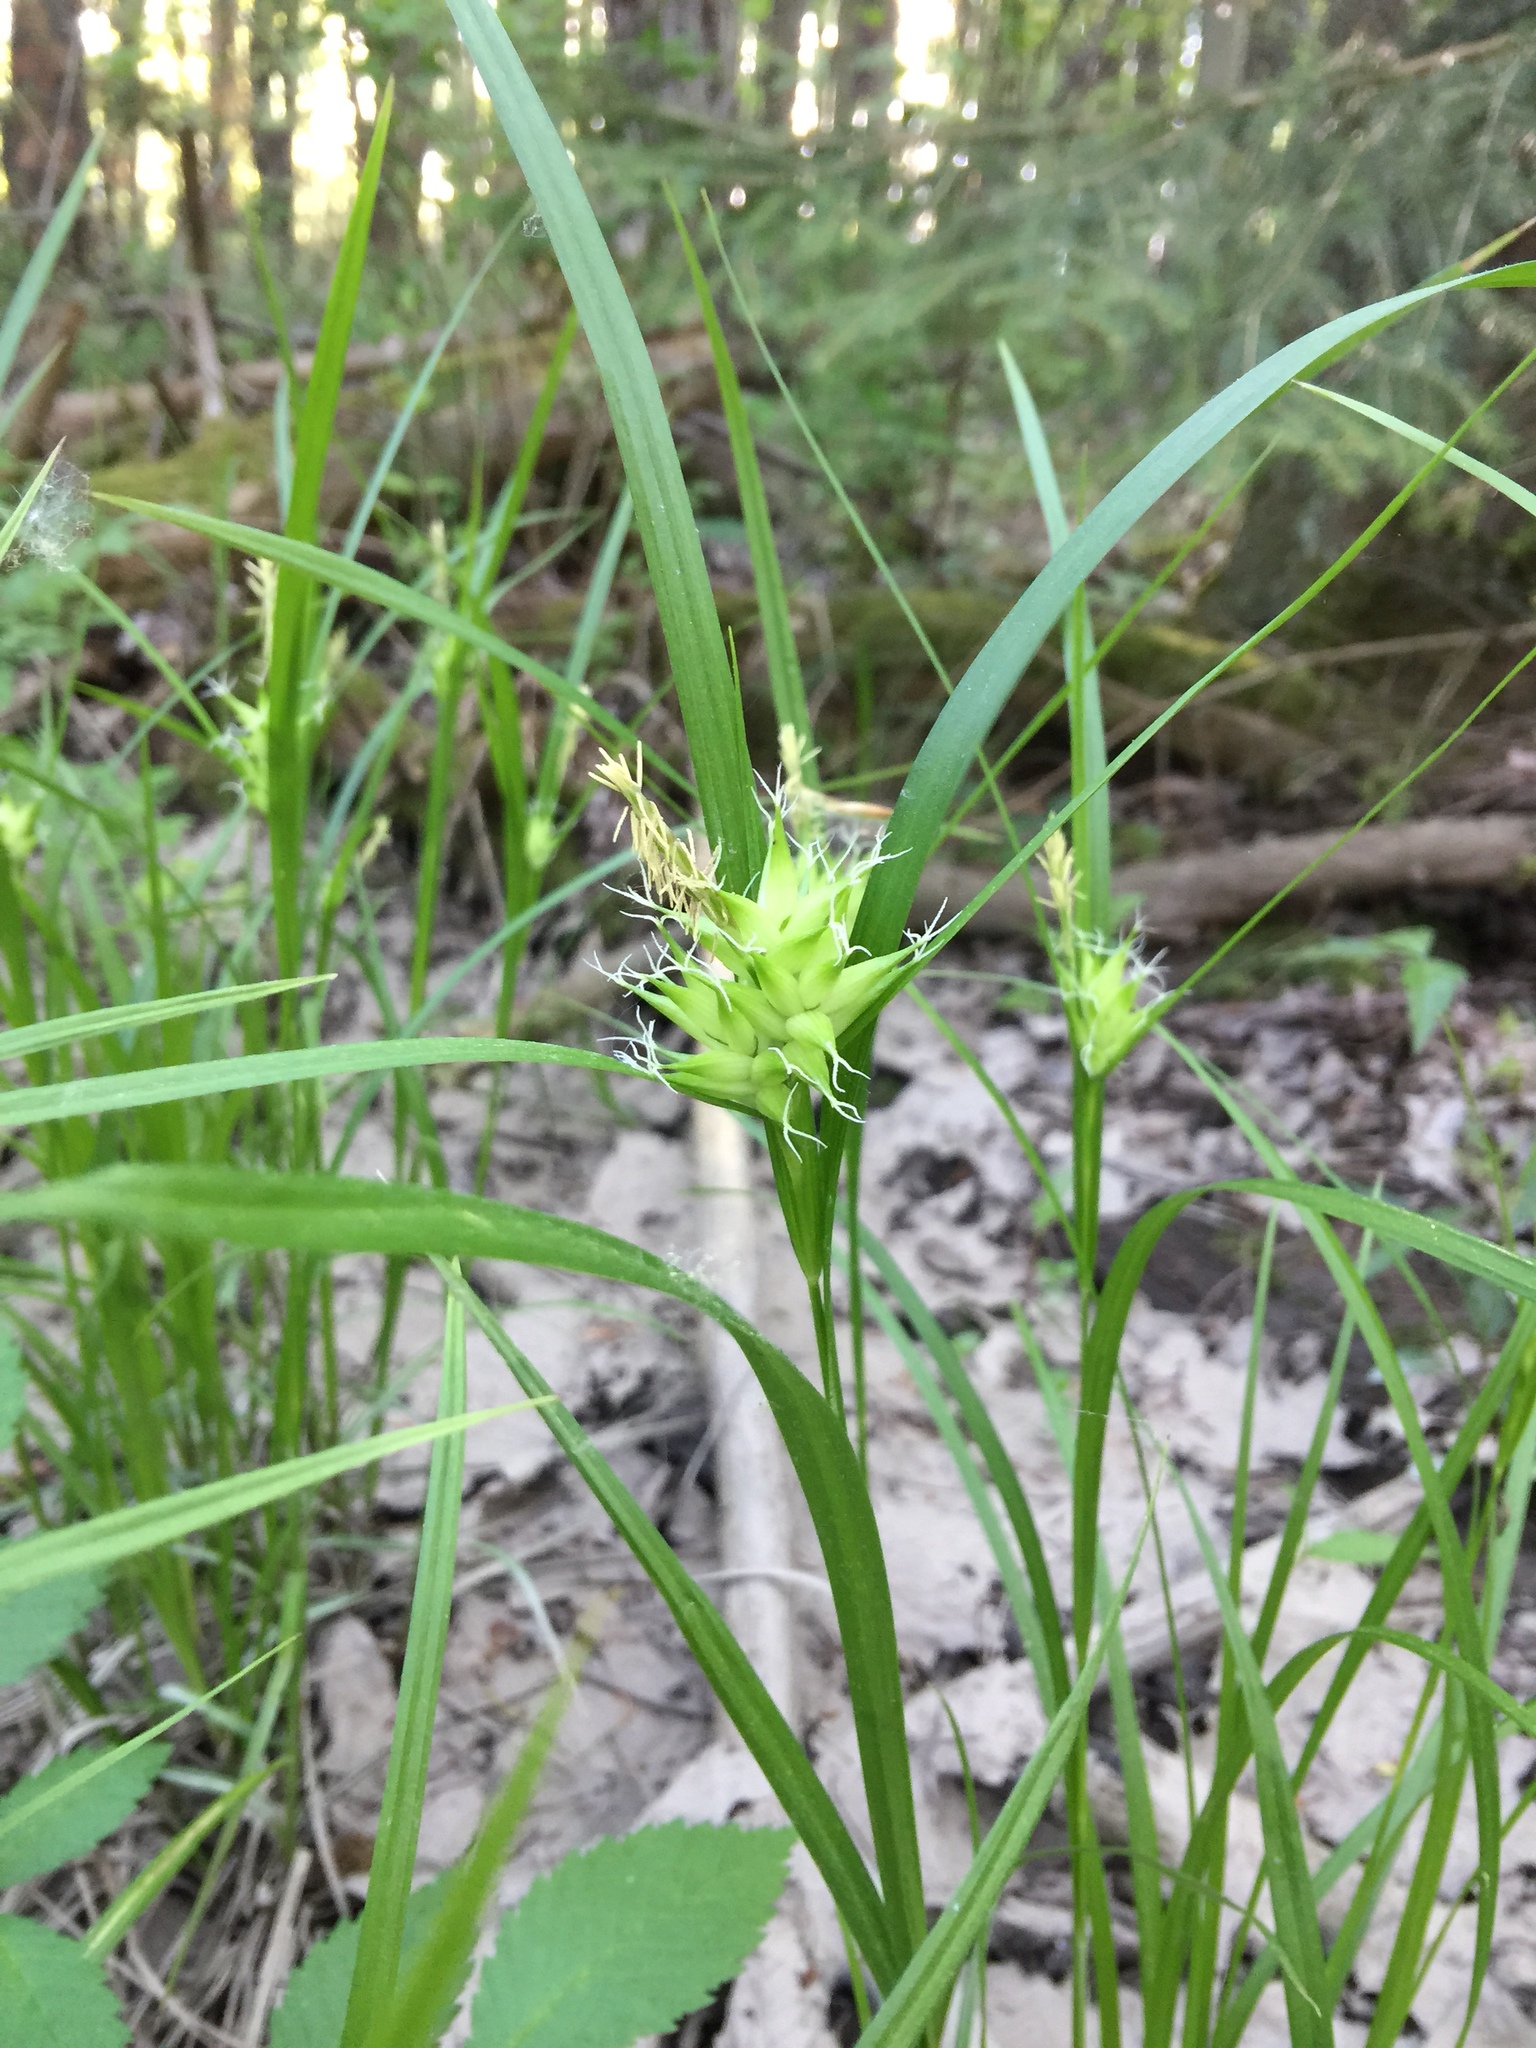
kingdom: Plantae
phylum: Tracheophyta
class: Liliopsida
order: Poales
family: Cyperaceae
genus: Carex
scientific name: Carex intumescens
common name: Greater bladder sedge
